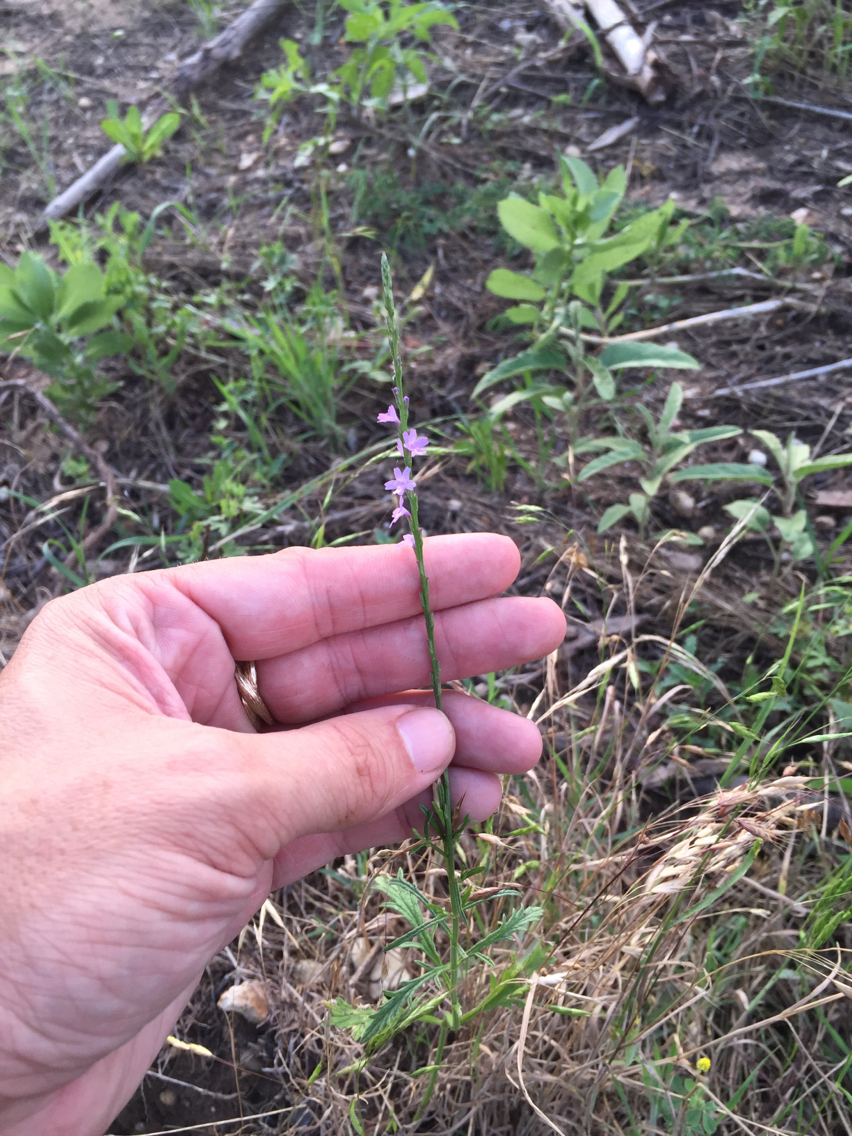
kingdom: Plantae
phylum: Tracheophyta
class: Magnoliopsida
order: Lamiales
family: Verbenaceae
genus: Verbena
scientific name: Verbena halei
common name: Texas vervain
